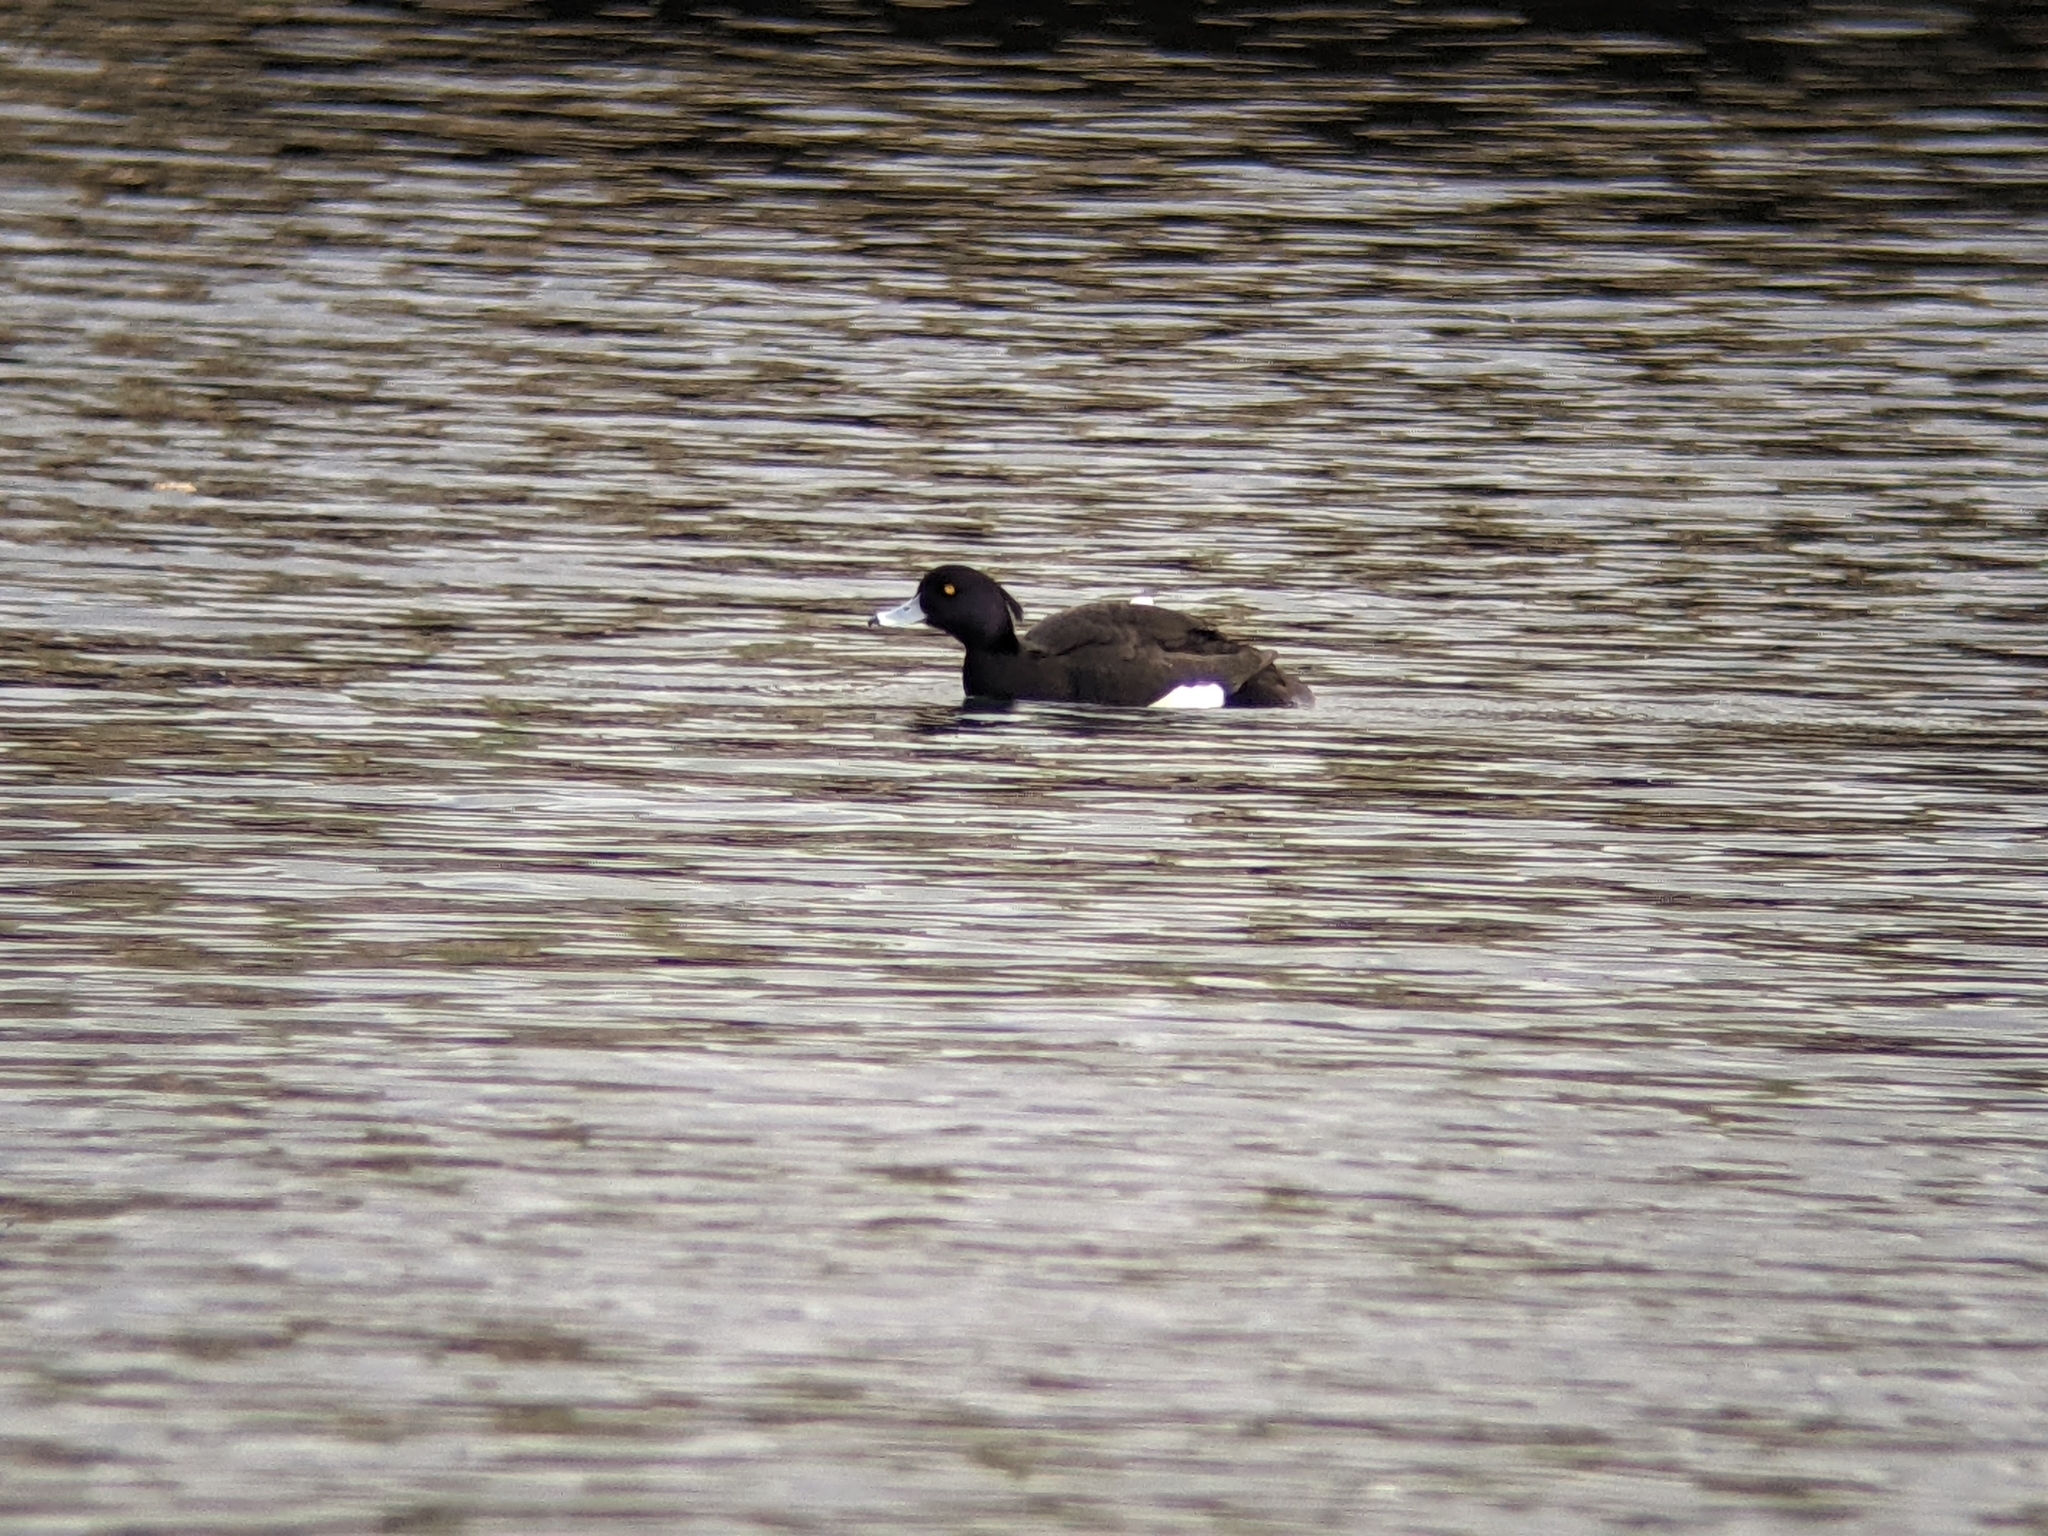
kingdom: Animalia
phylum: Chordata
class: Aves
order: Anseriformes
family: Anatidae
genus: Aythya
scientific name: Aythya fuligula
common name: Tufted duck
